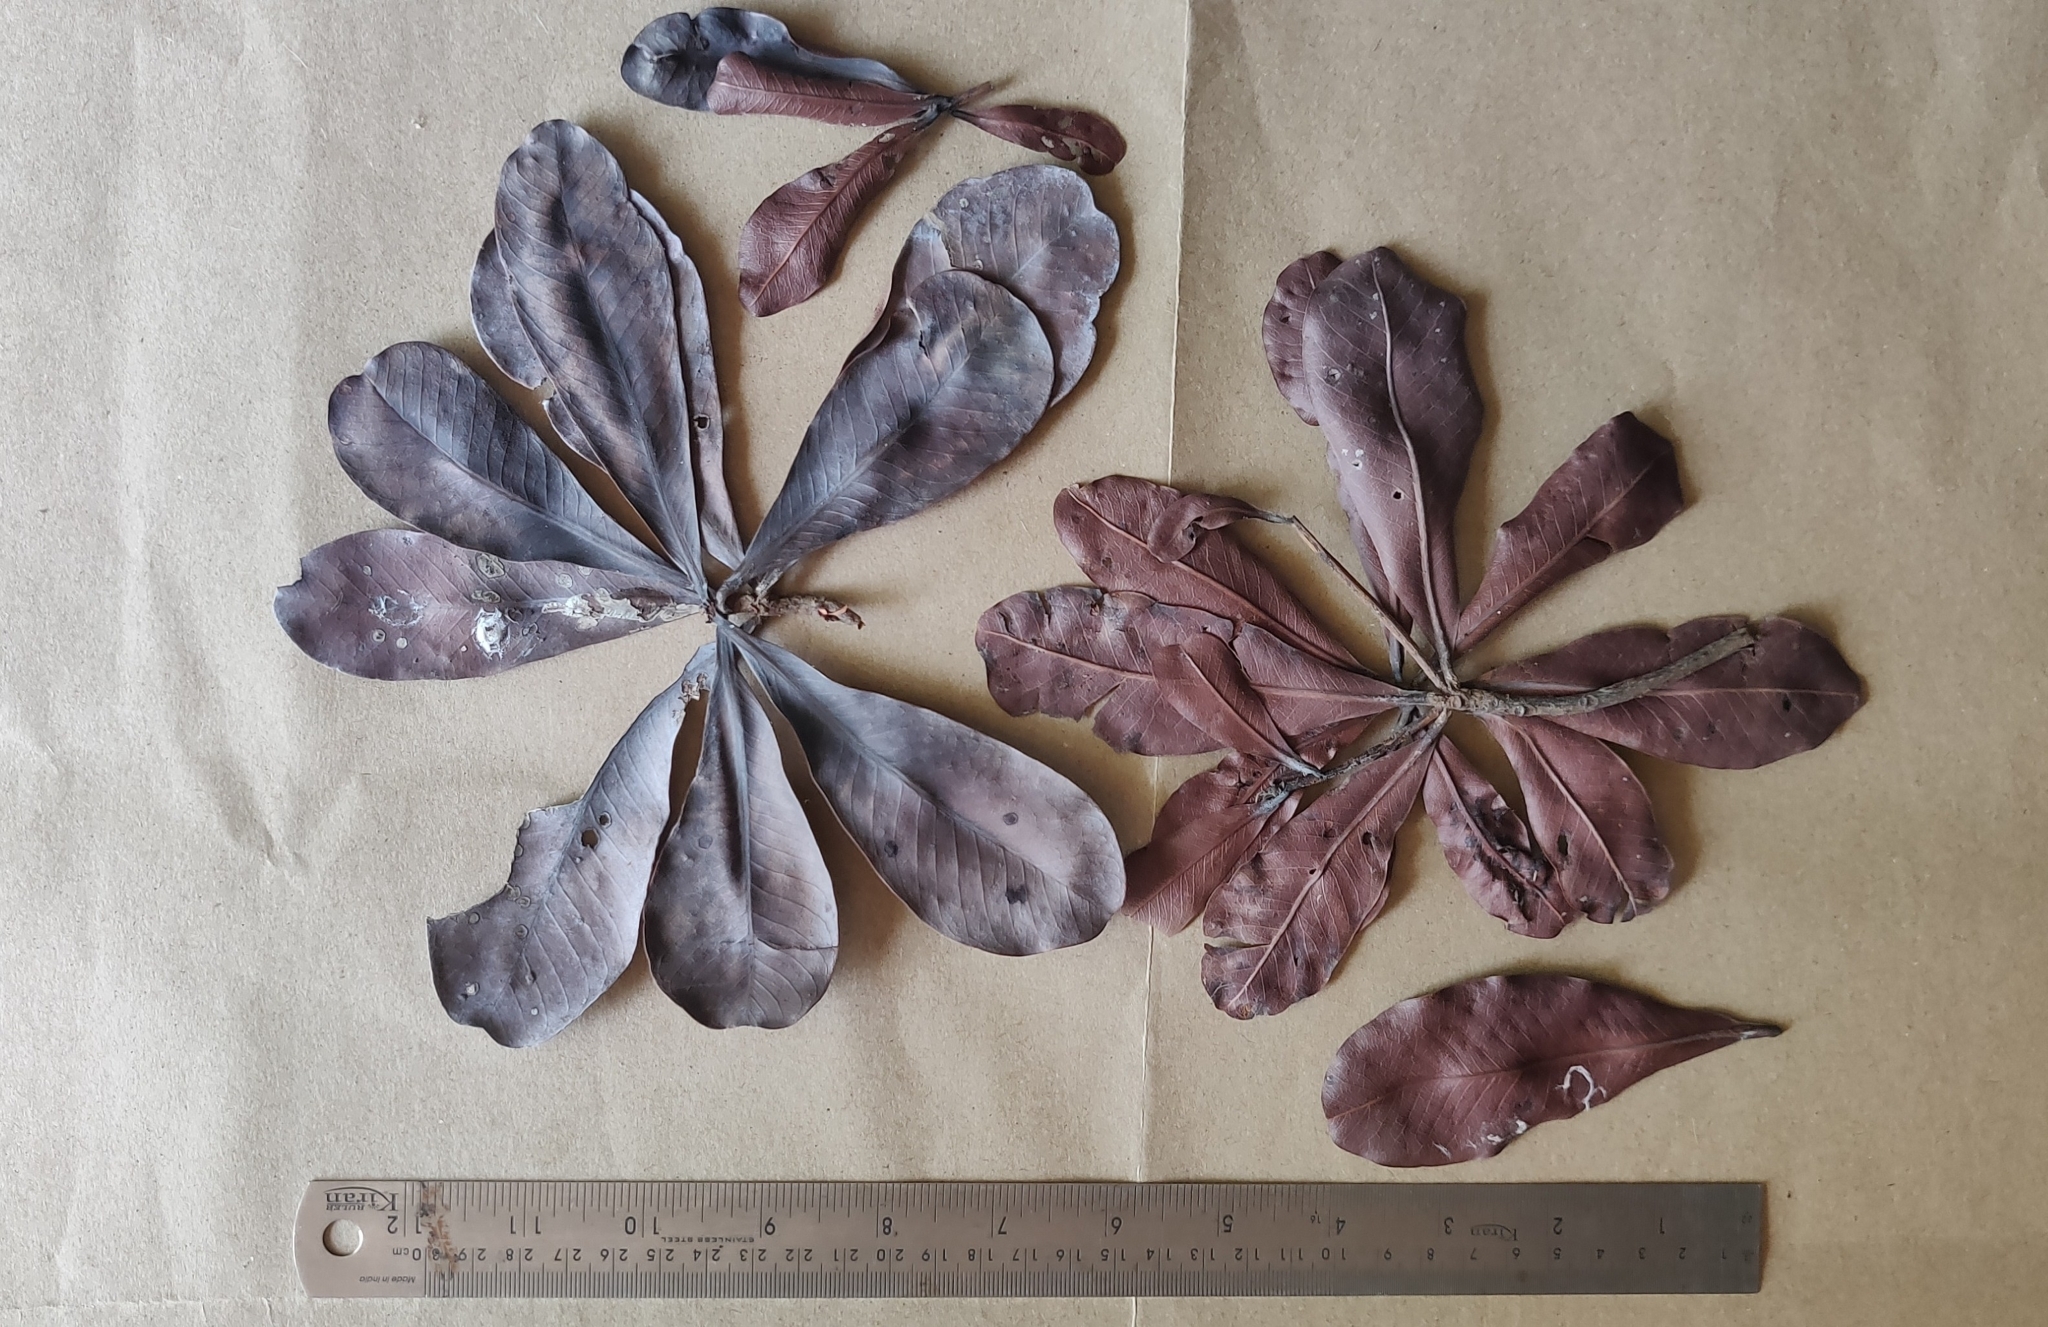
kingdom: Plantae
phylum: Tracheophyta
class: Magnoliopsida
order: Sapindales
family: Anacardiaceae
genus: Gluta
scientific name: Gluta travancorica
